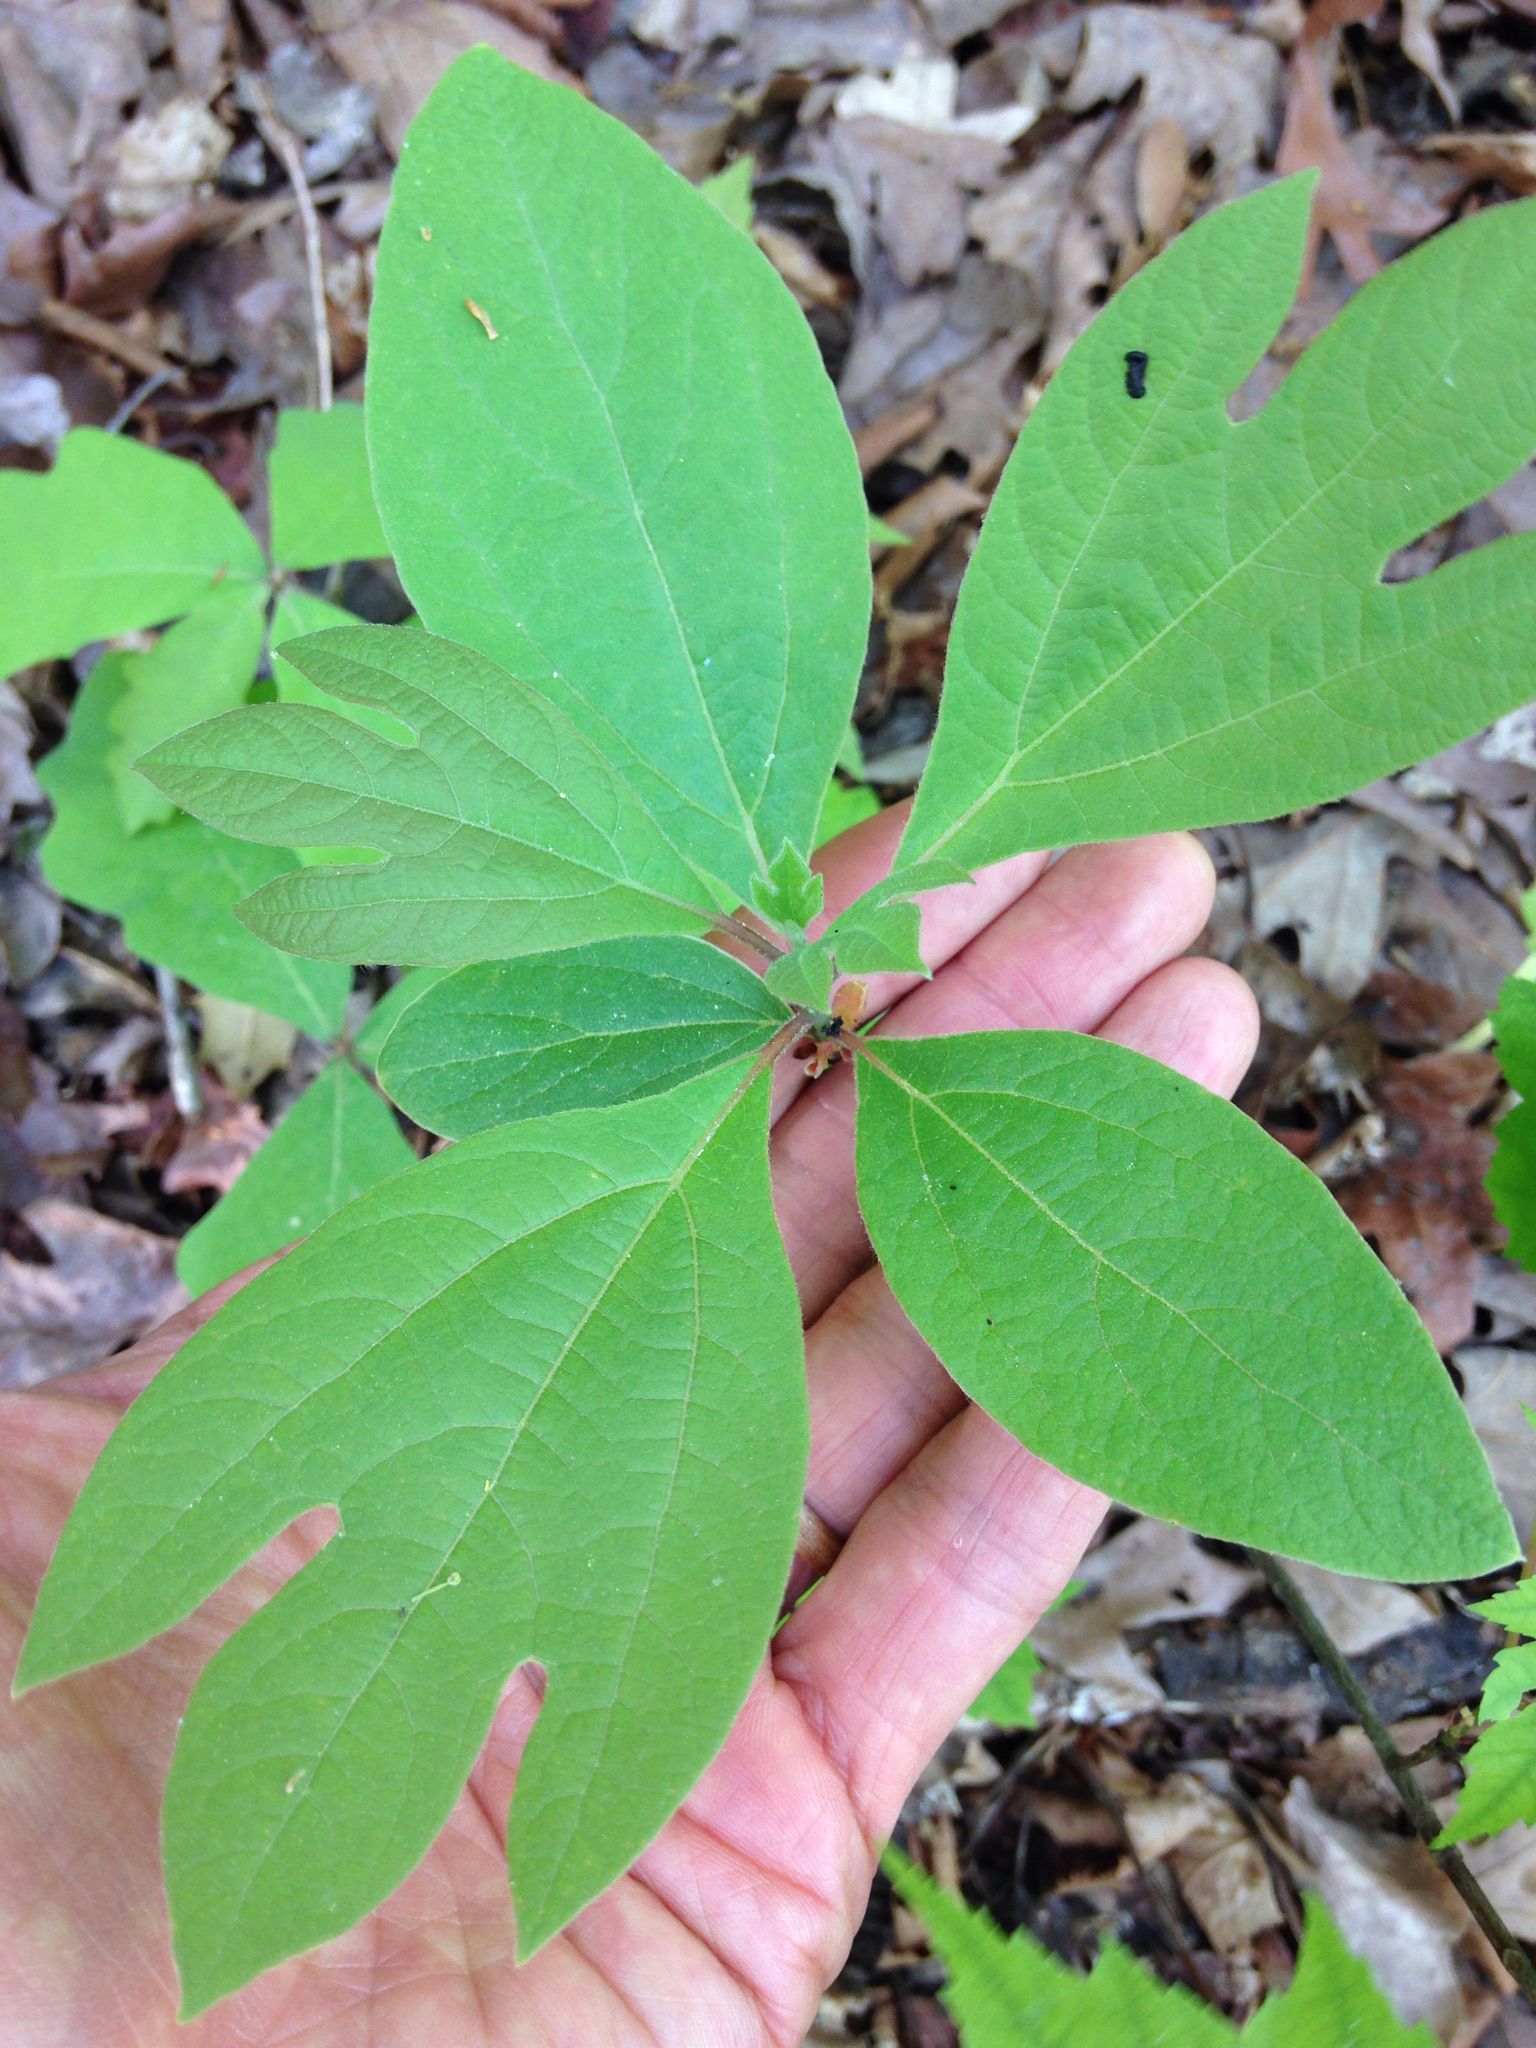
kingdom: Plantae
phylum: Tracheophyta
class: Magnoliopsida
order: Laurales
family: Lauraceae
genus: Sassafras
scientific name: Sassafras albidum
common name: Sassafras
